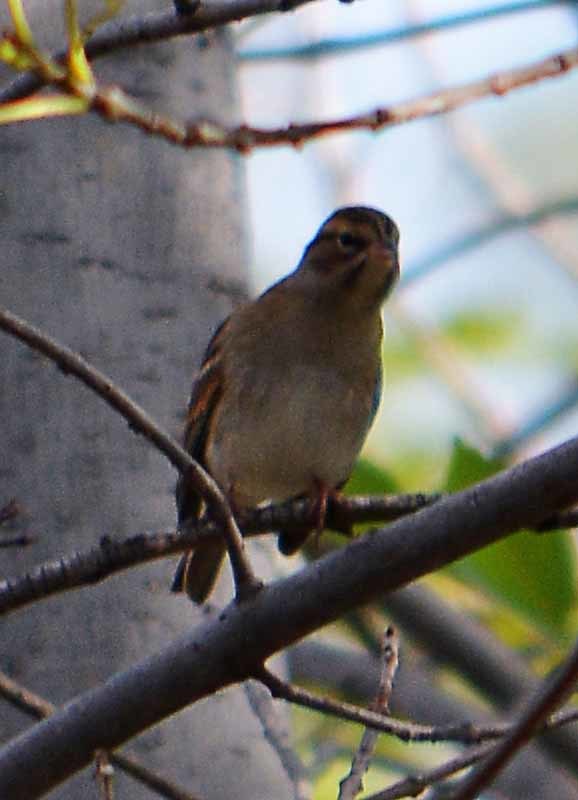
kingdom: Animalia
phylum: Chordata
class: Aves
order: Passeriformes
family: Passerellidae
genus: Chondestes
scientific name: Chondestes grammacus
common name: Lark sparrow
